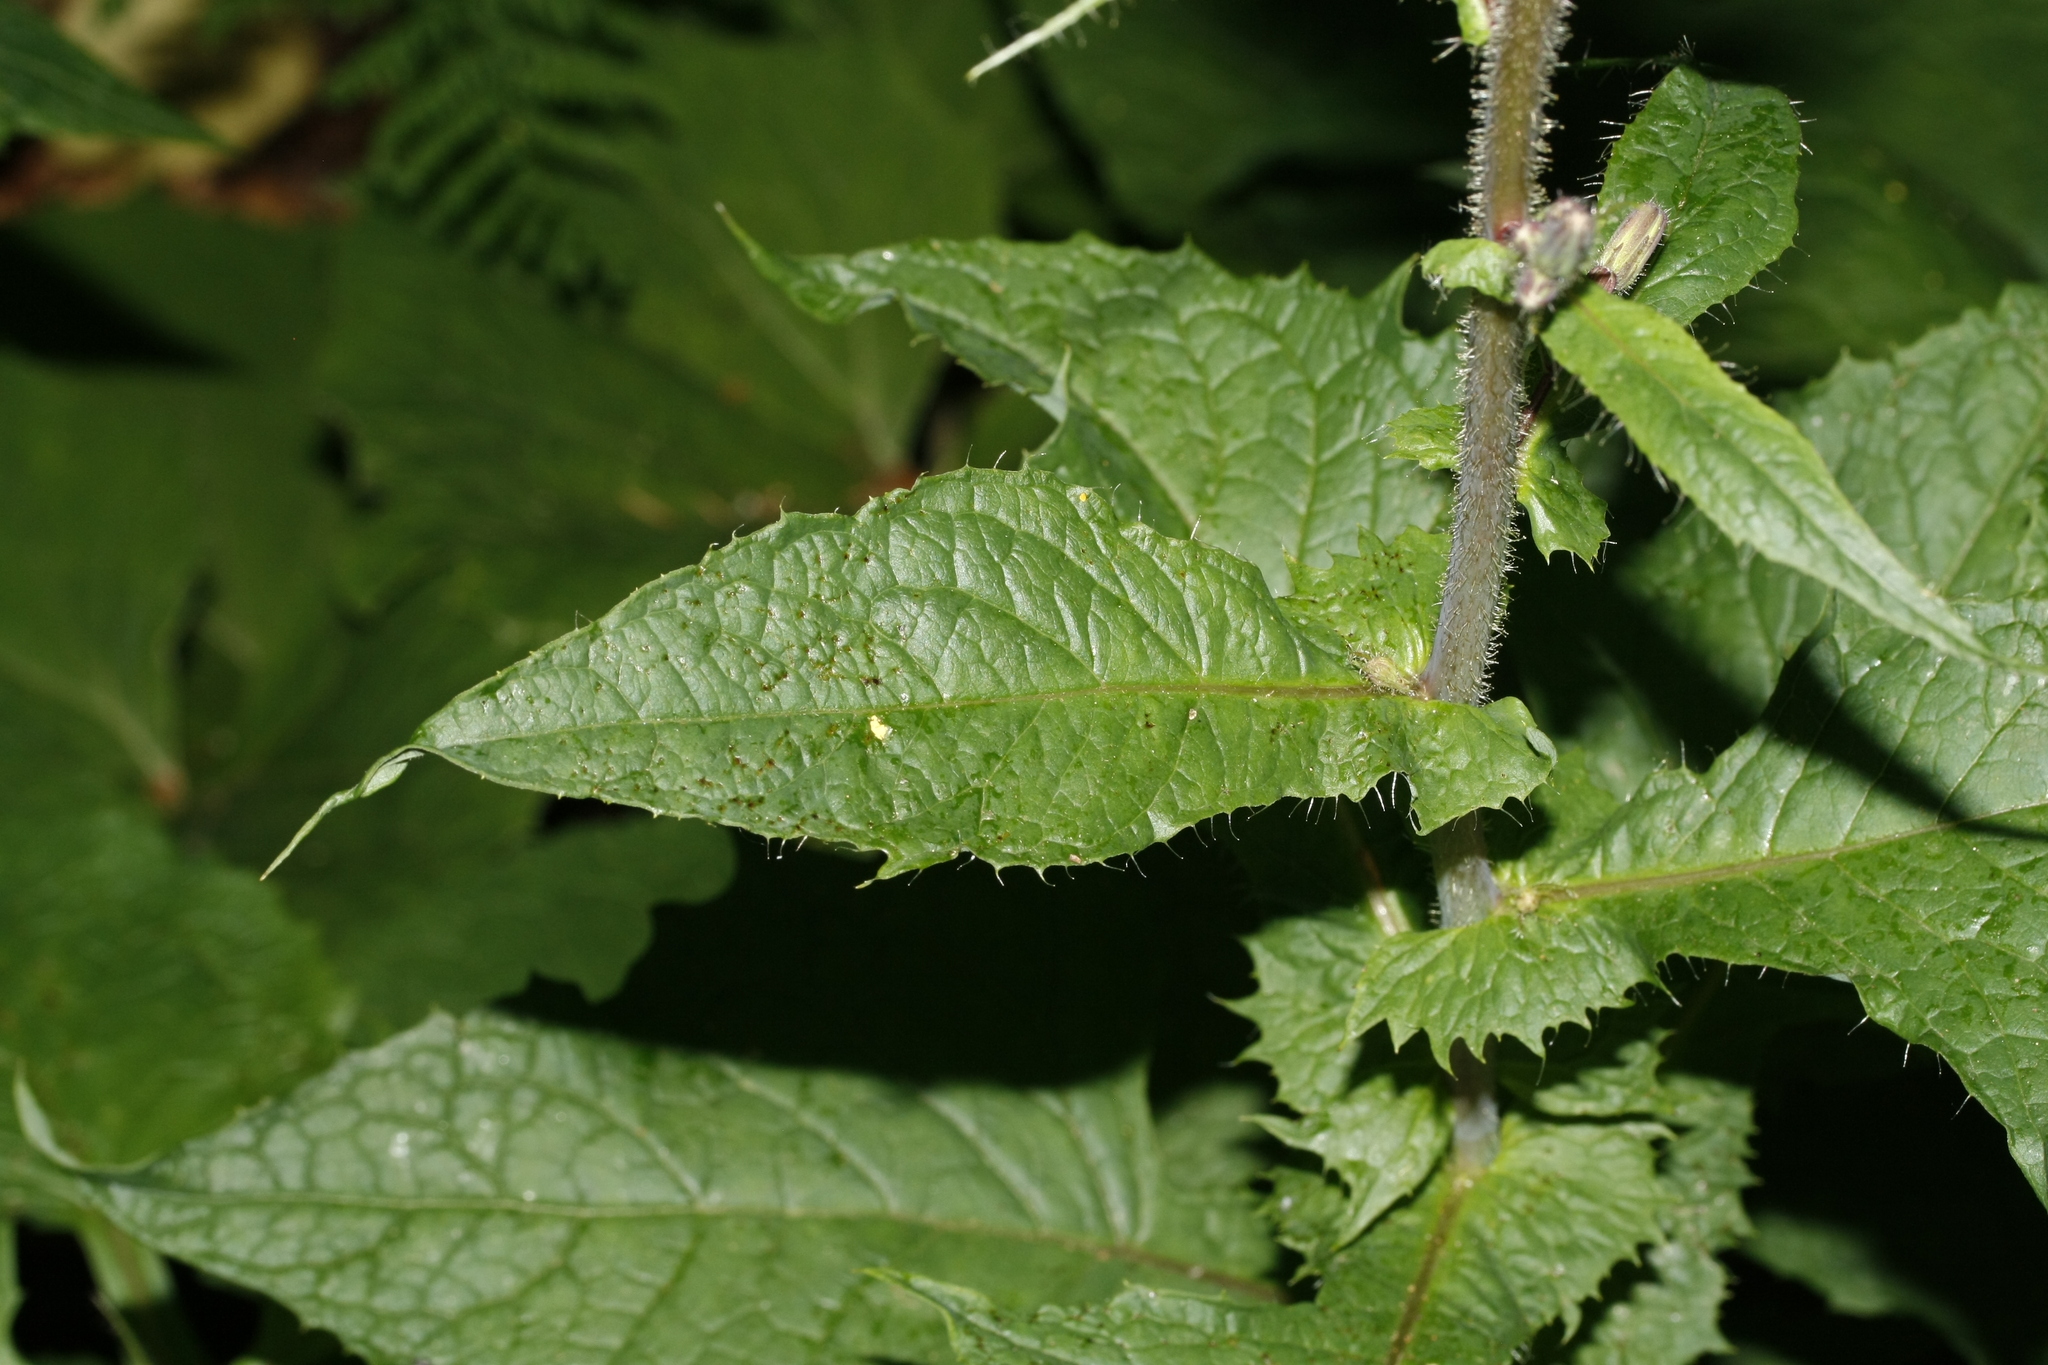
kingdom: Plantae
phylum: Tracheophyta
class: Magnoliopsida
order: Asterales
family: Asteraceae
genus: Cicerbita
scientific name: Cicerbita alpina
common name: Alpine blue-sow-thistle
